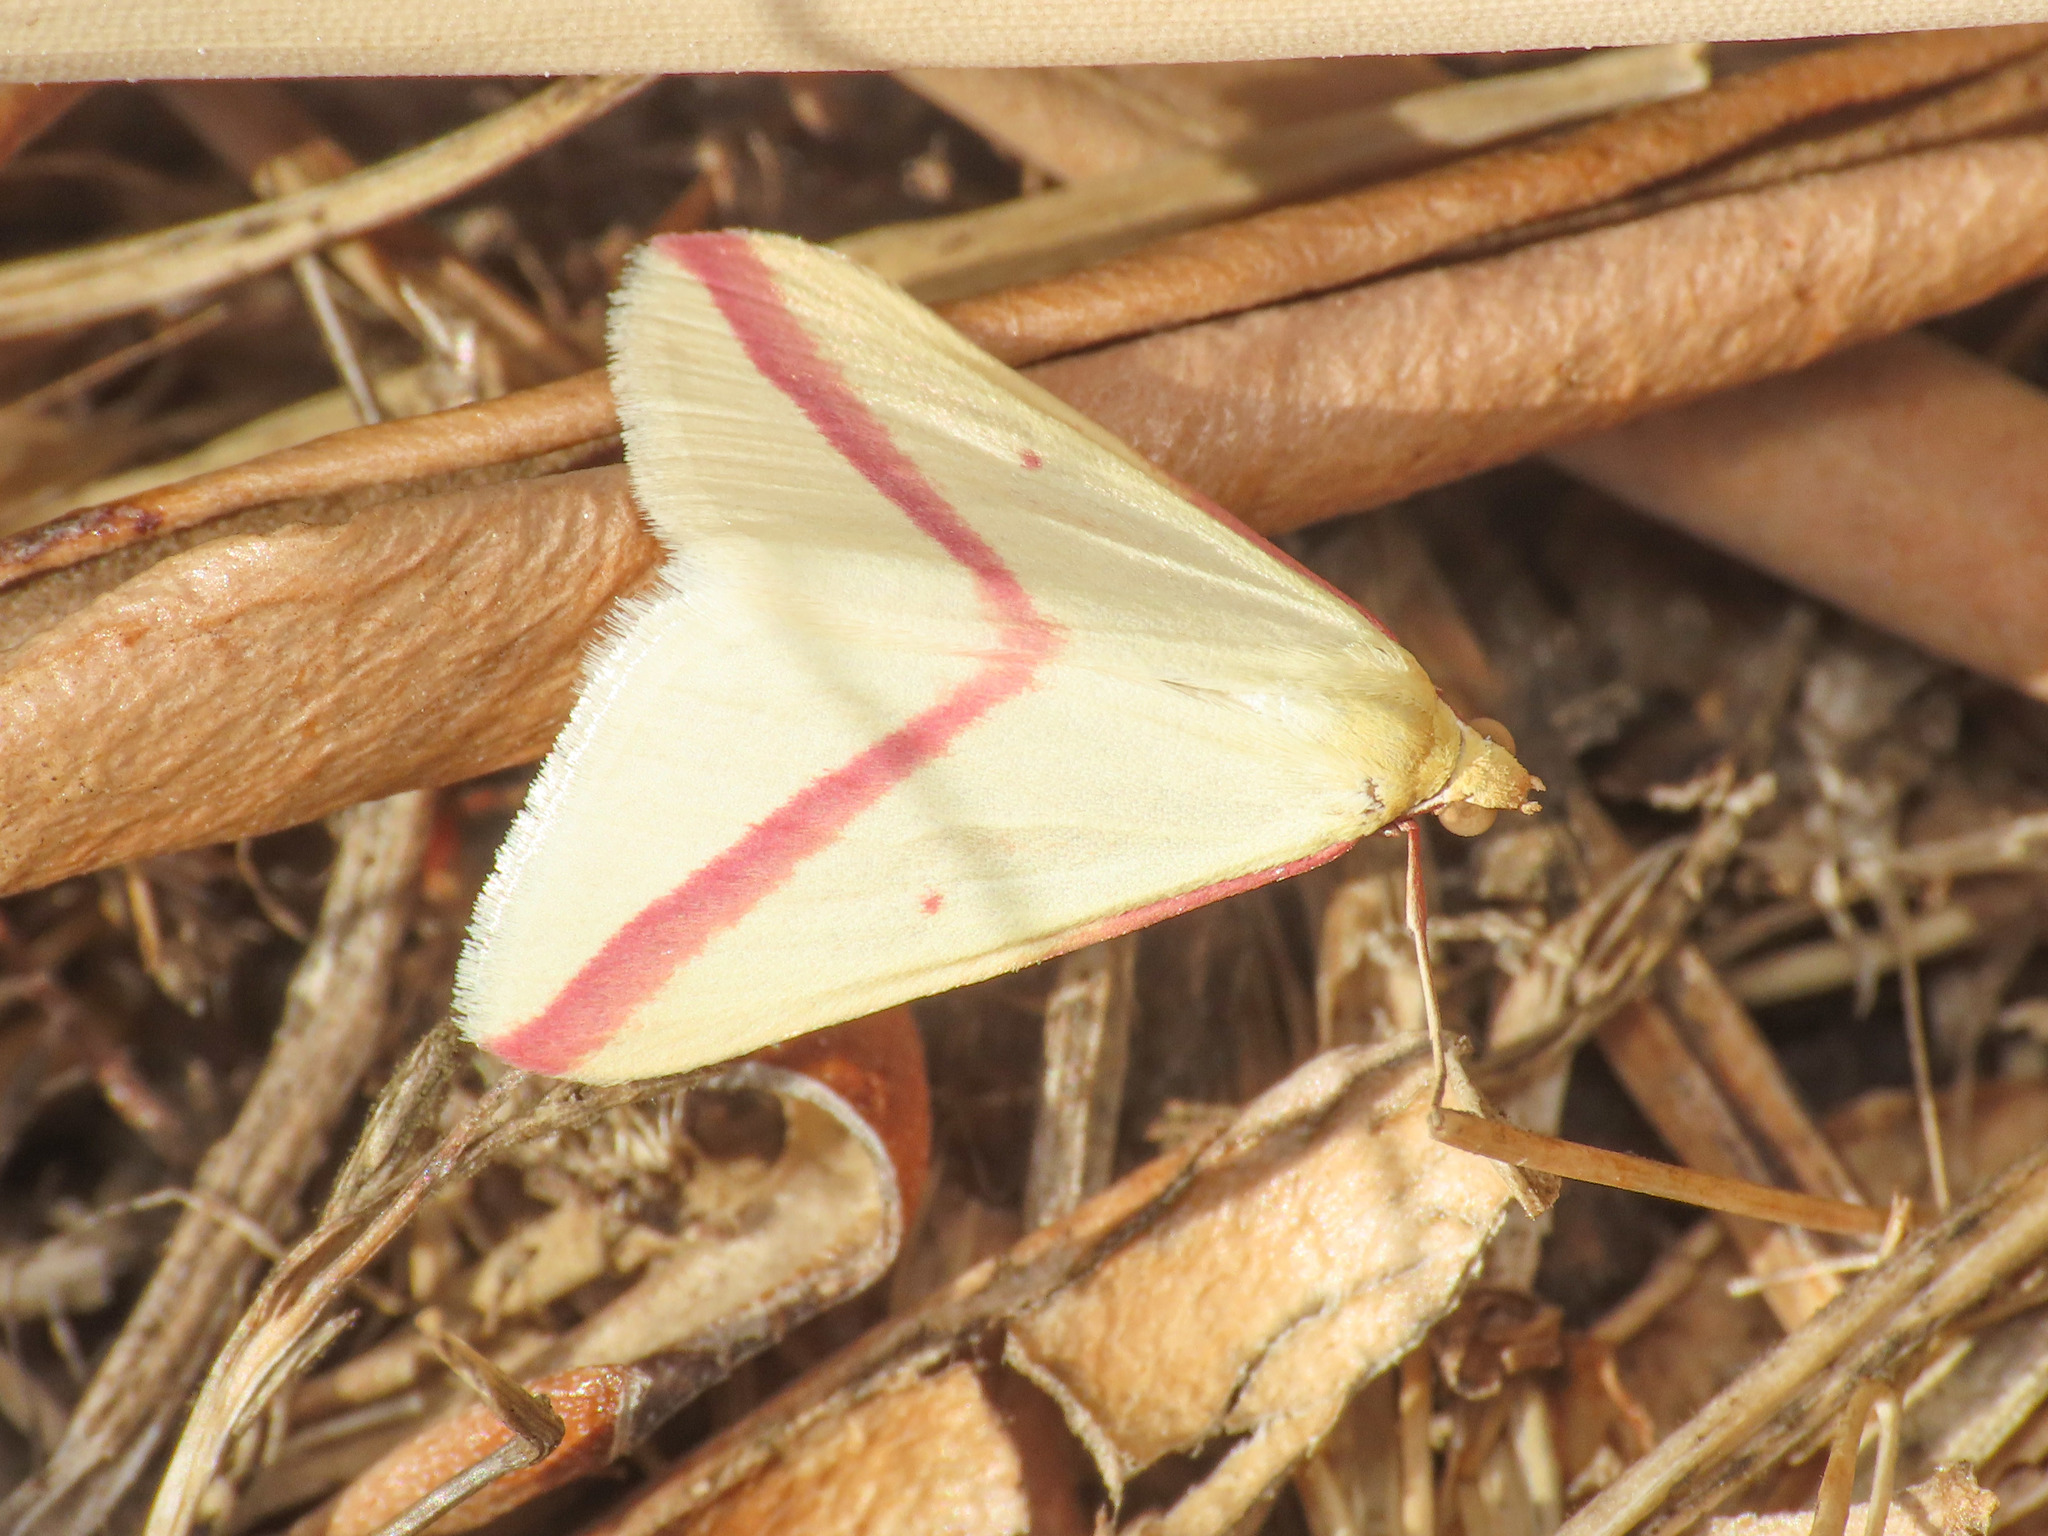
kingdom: Animalia
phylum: Arthropoda
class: Insecta
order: Lepidoptera
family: Geometridae
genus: Rhodometra
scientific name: Rhodometra sacraria
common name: Vestal
